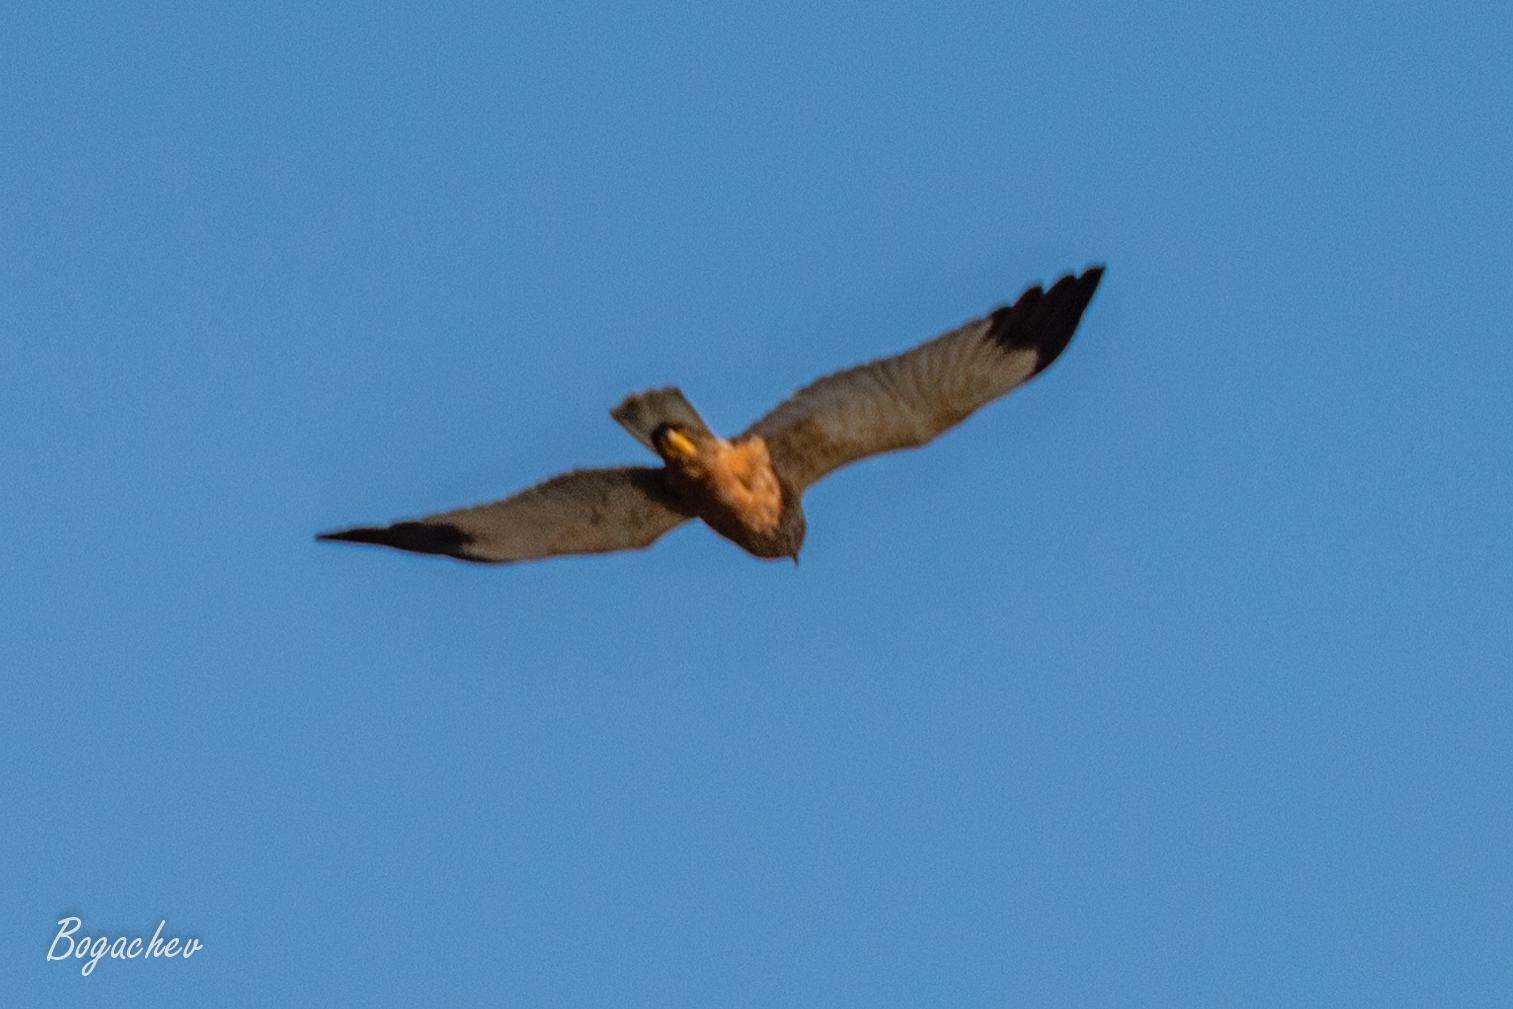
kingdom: Animalia
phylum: Chordata
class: Aves
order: Accipitriformes
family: Accipitridae
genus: Circus
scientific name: Circus aeruginosus
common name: Western marsh harrier
